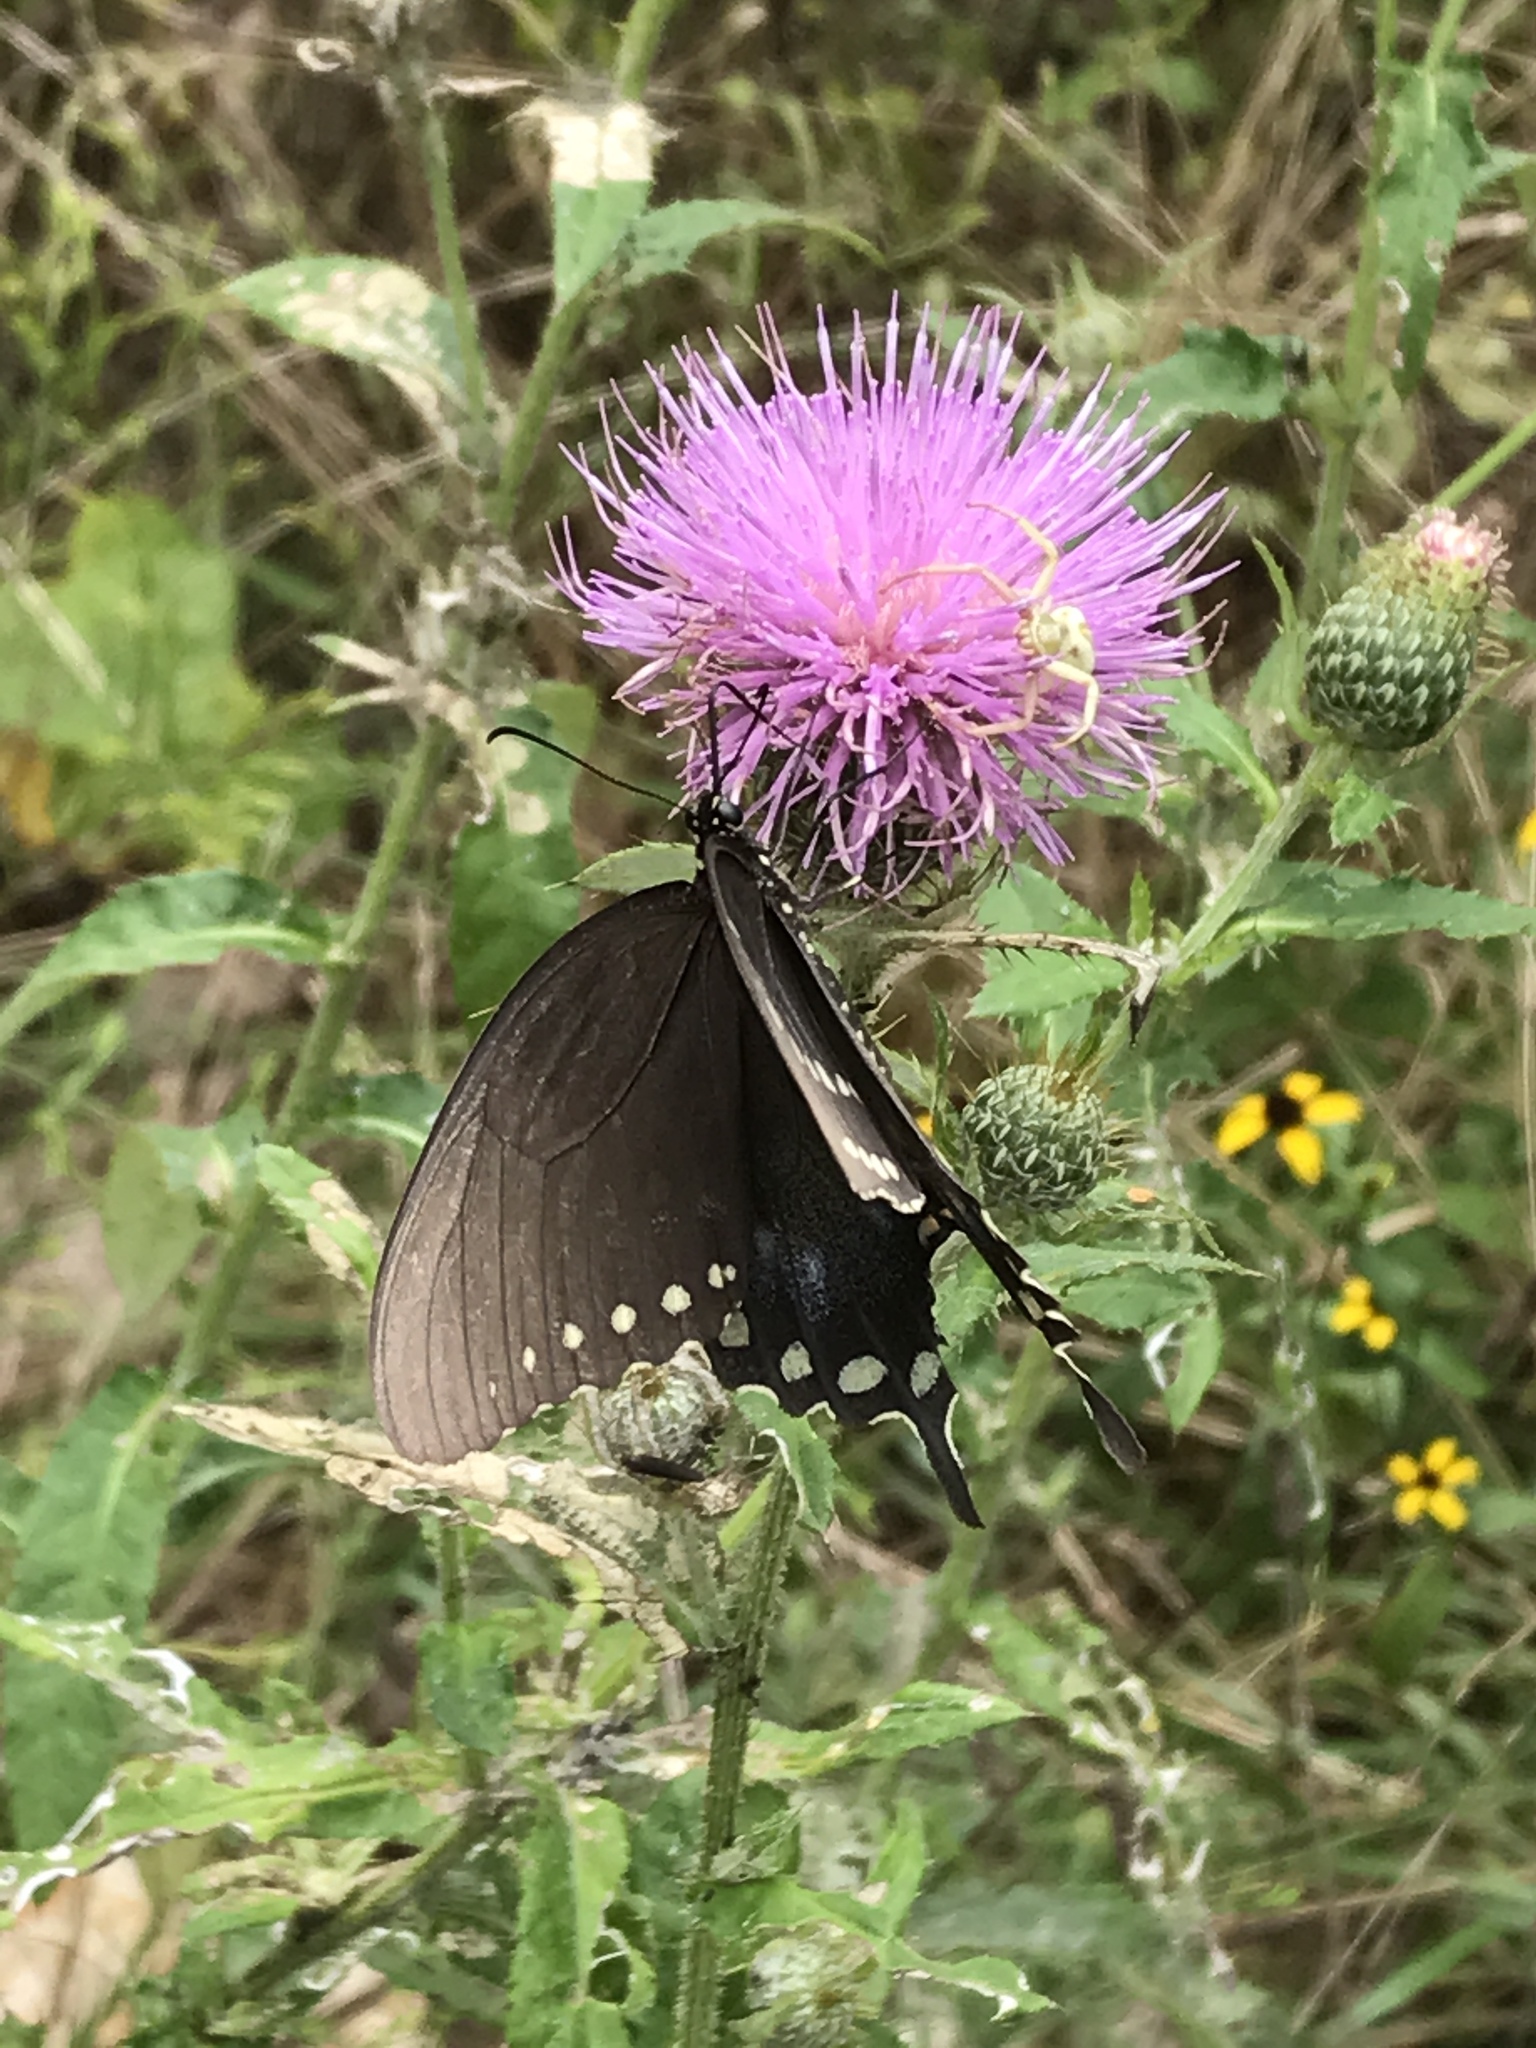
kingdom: Animalia
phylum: Arthropoda
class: Insecta
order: Lepidoptera
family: Papilionidae
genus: Papilio
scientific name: Papilio troilus
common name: Spicebush swallowtail
